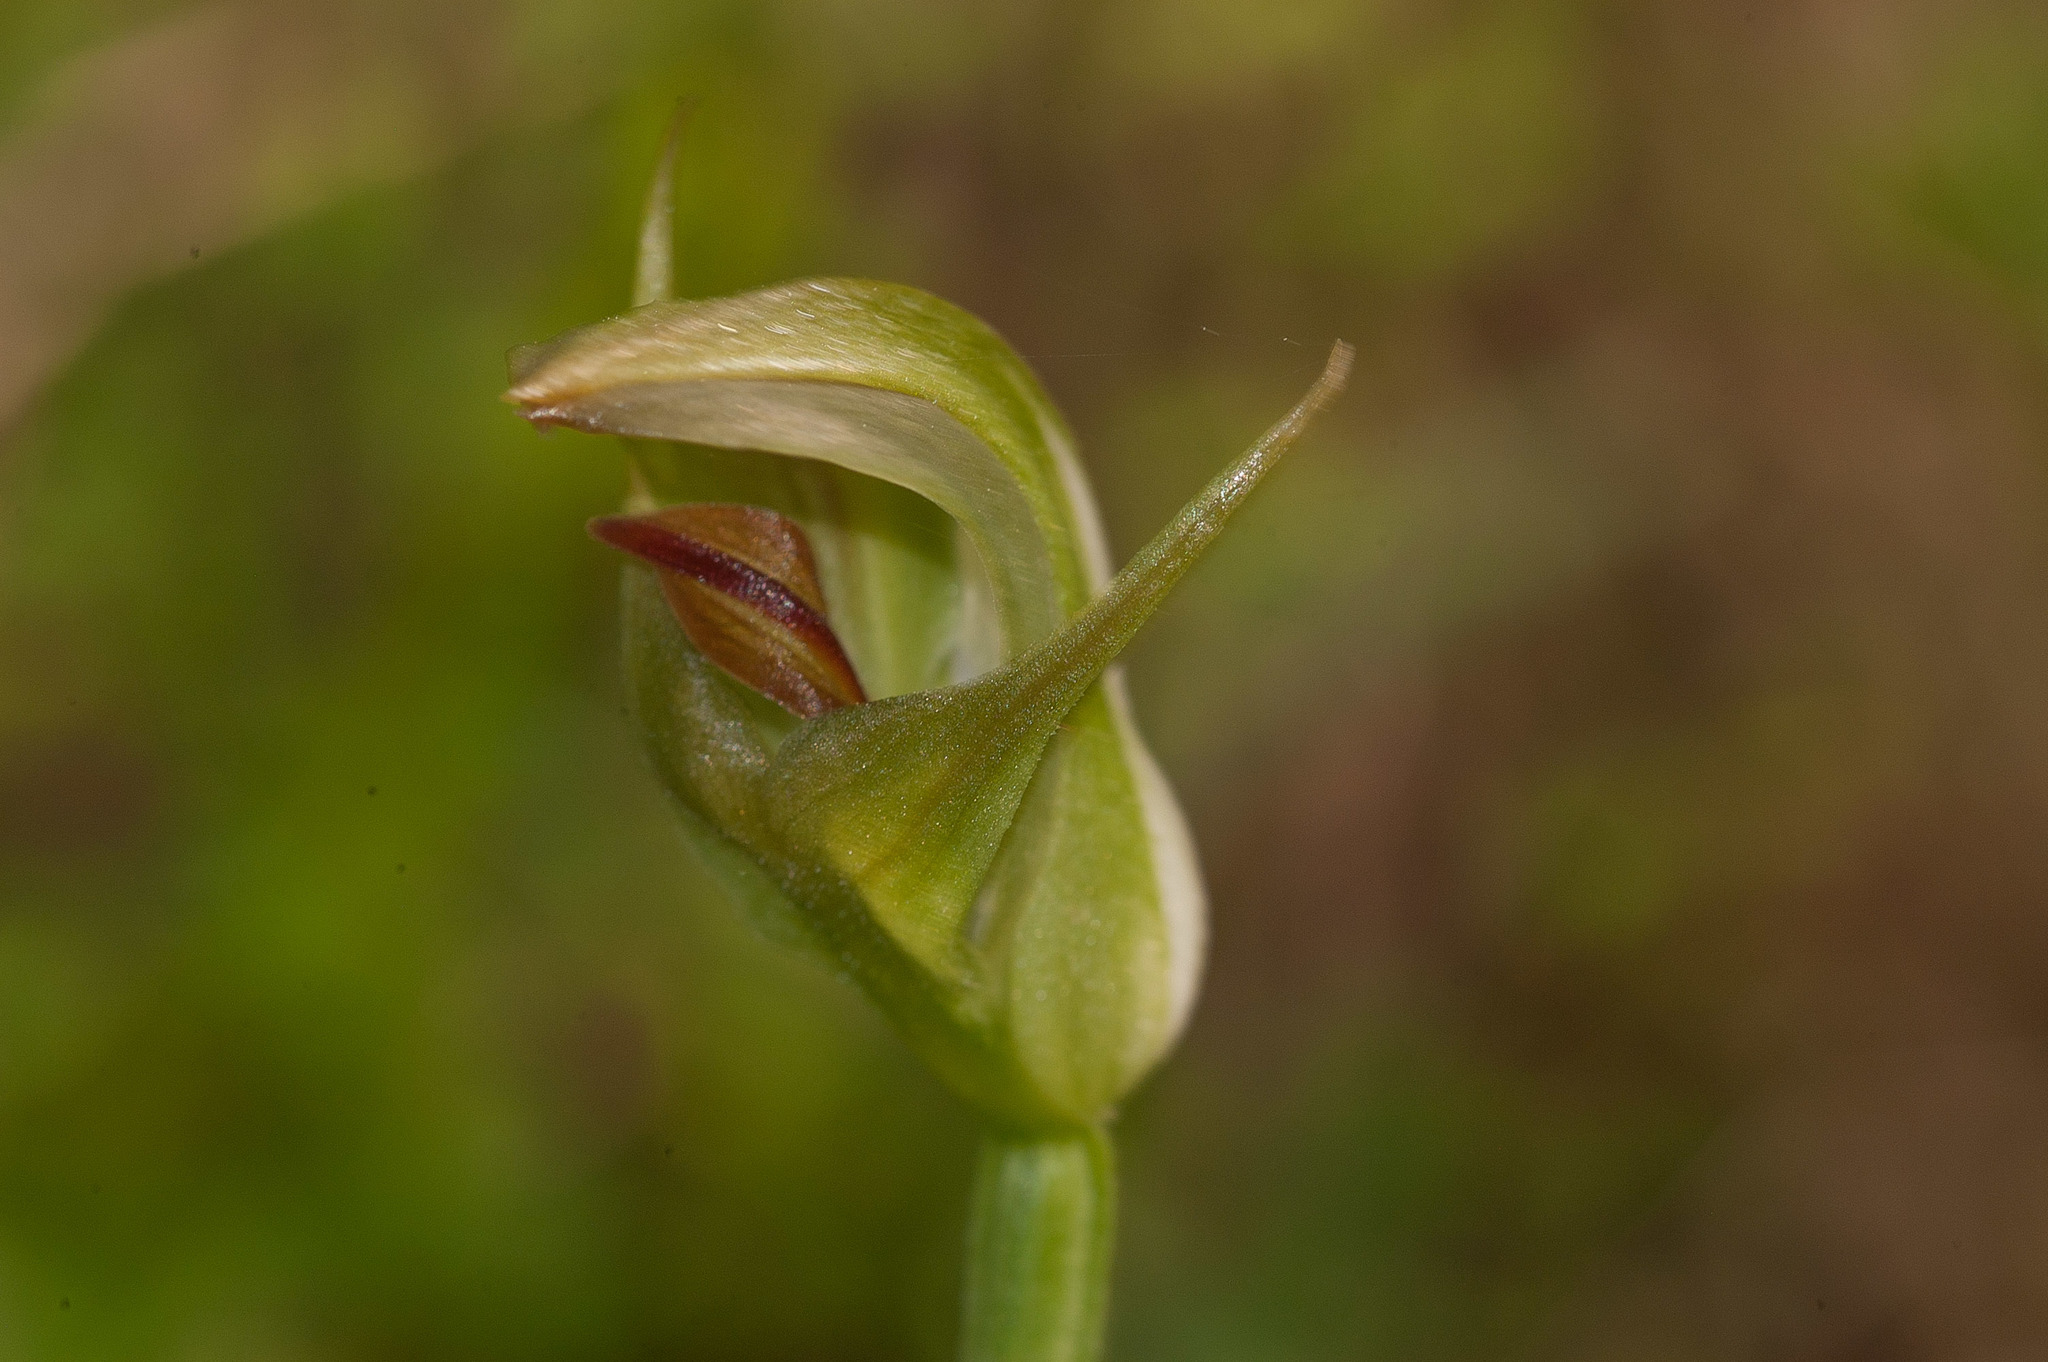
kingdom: Plantae
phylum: Tracheophyta
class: Liliopsida
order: Asparagales
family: Orchidaceae
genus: Pterostylis
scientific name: Pterostylis curta
